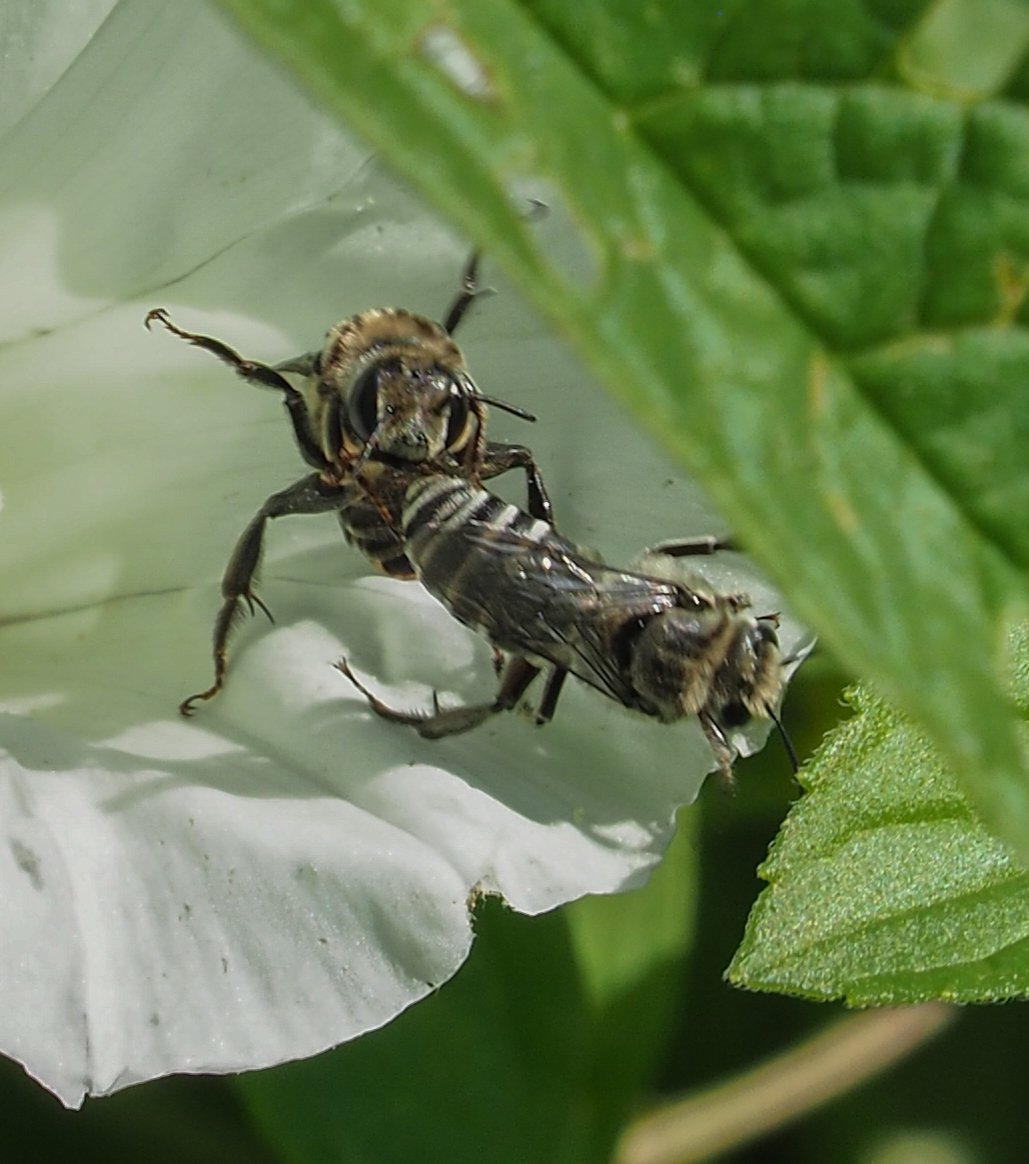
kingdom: Animalia
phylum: Arthropoda
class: Insecta
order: Hymenoptera
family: Apidae
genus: Melitoma
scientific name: Melitoma taurea
